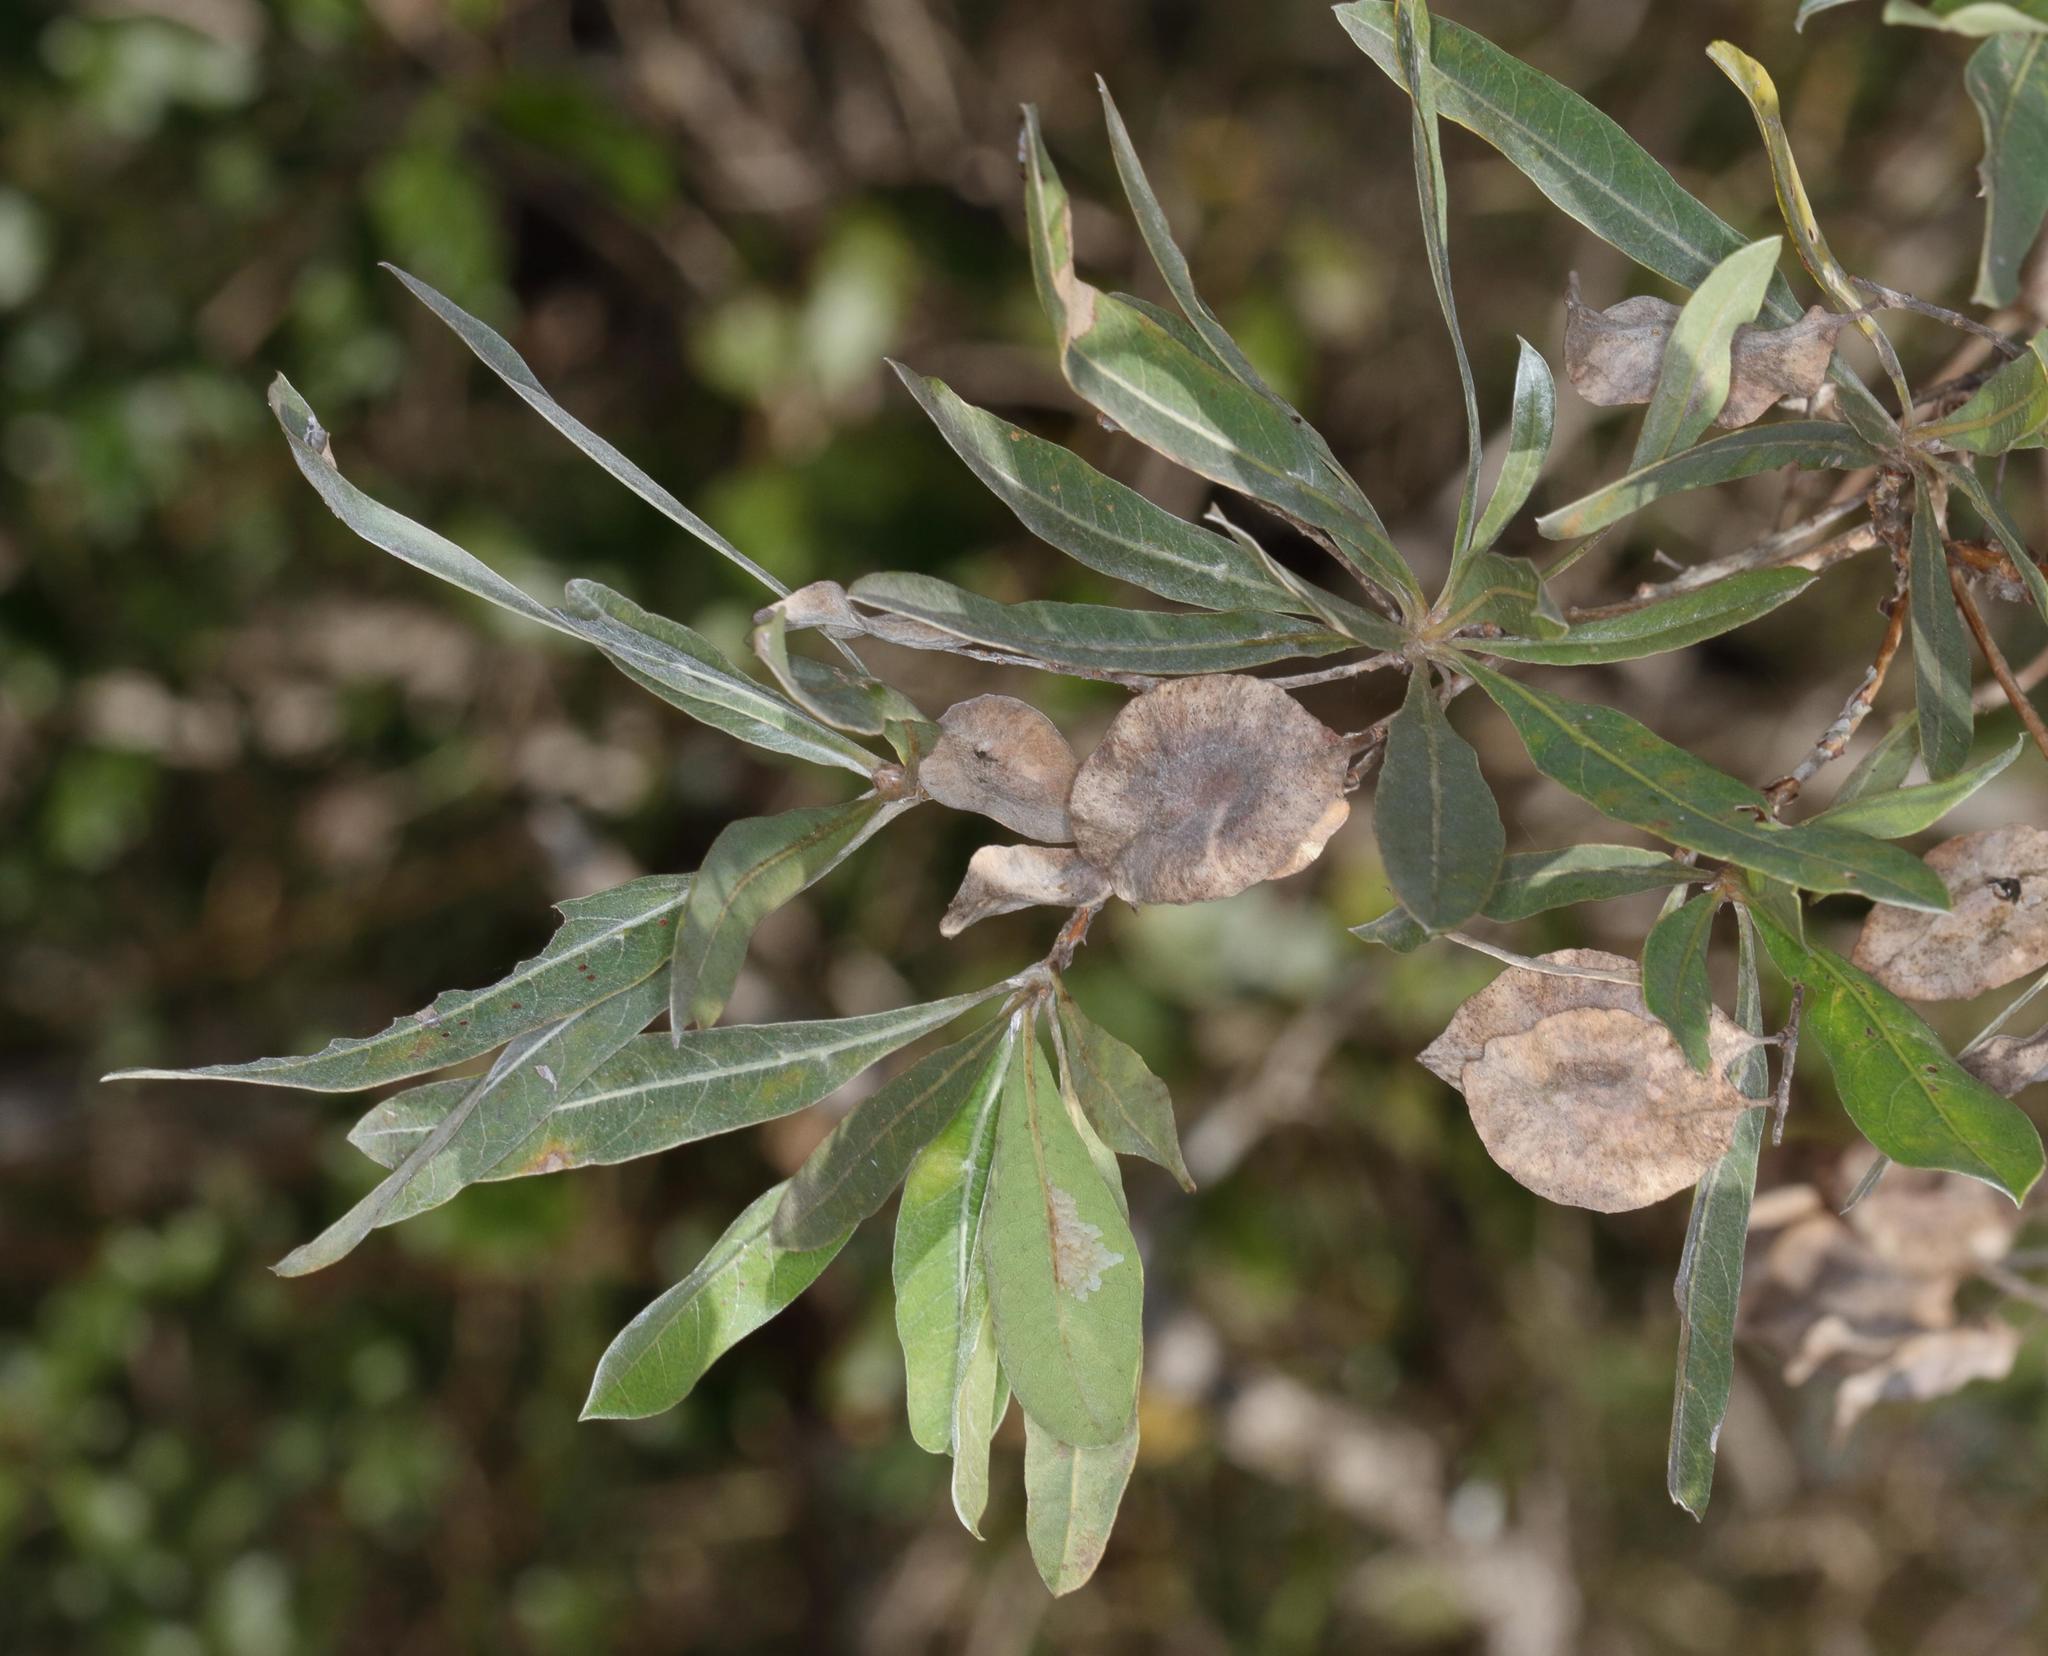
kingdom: Plantae
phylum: Tracheophyta
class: Magnoliopsida
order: Myrtales
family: Combretaceae
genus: Terminalia
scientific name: Terminalia sericea
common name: Clusterleaf
